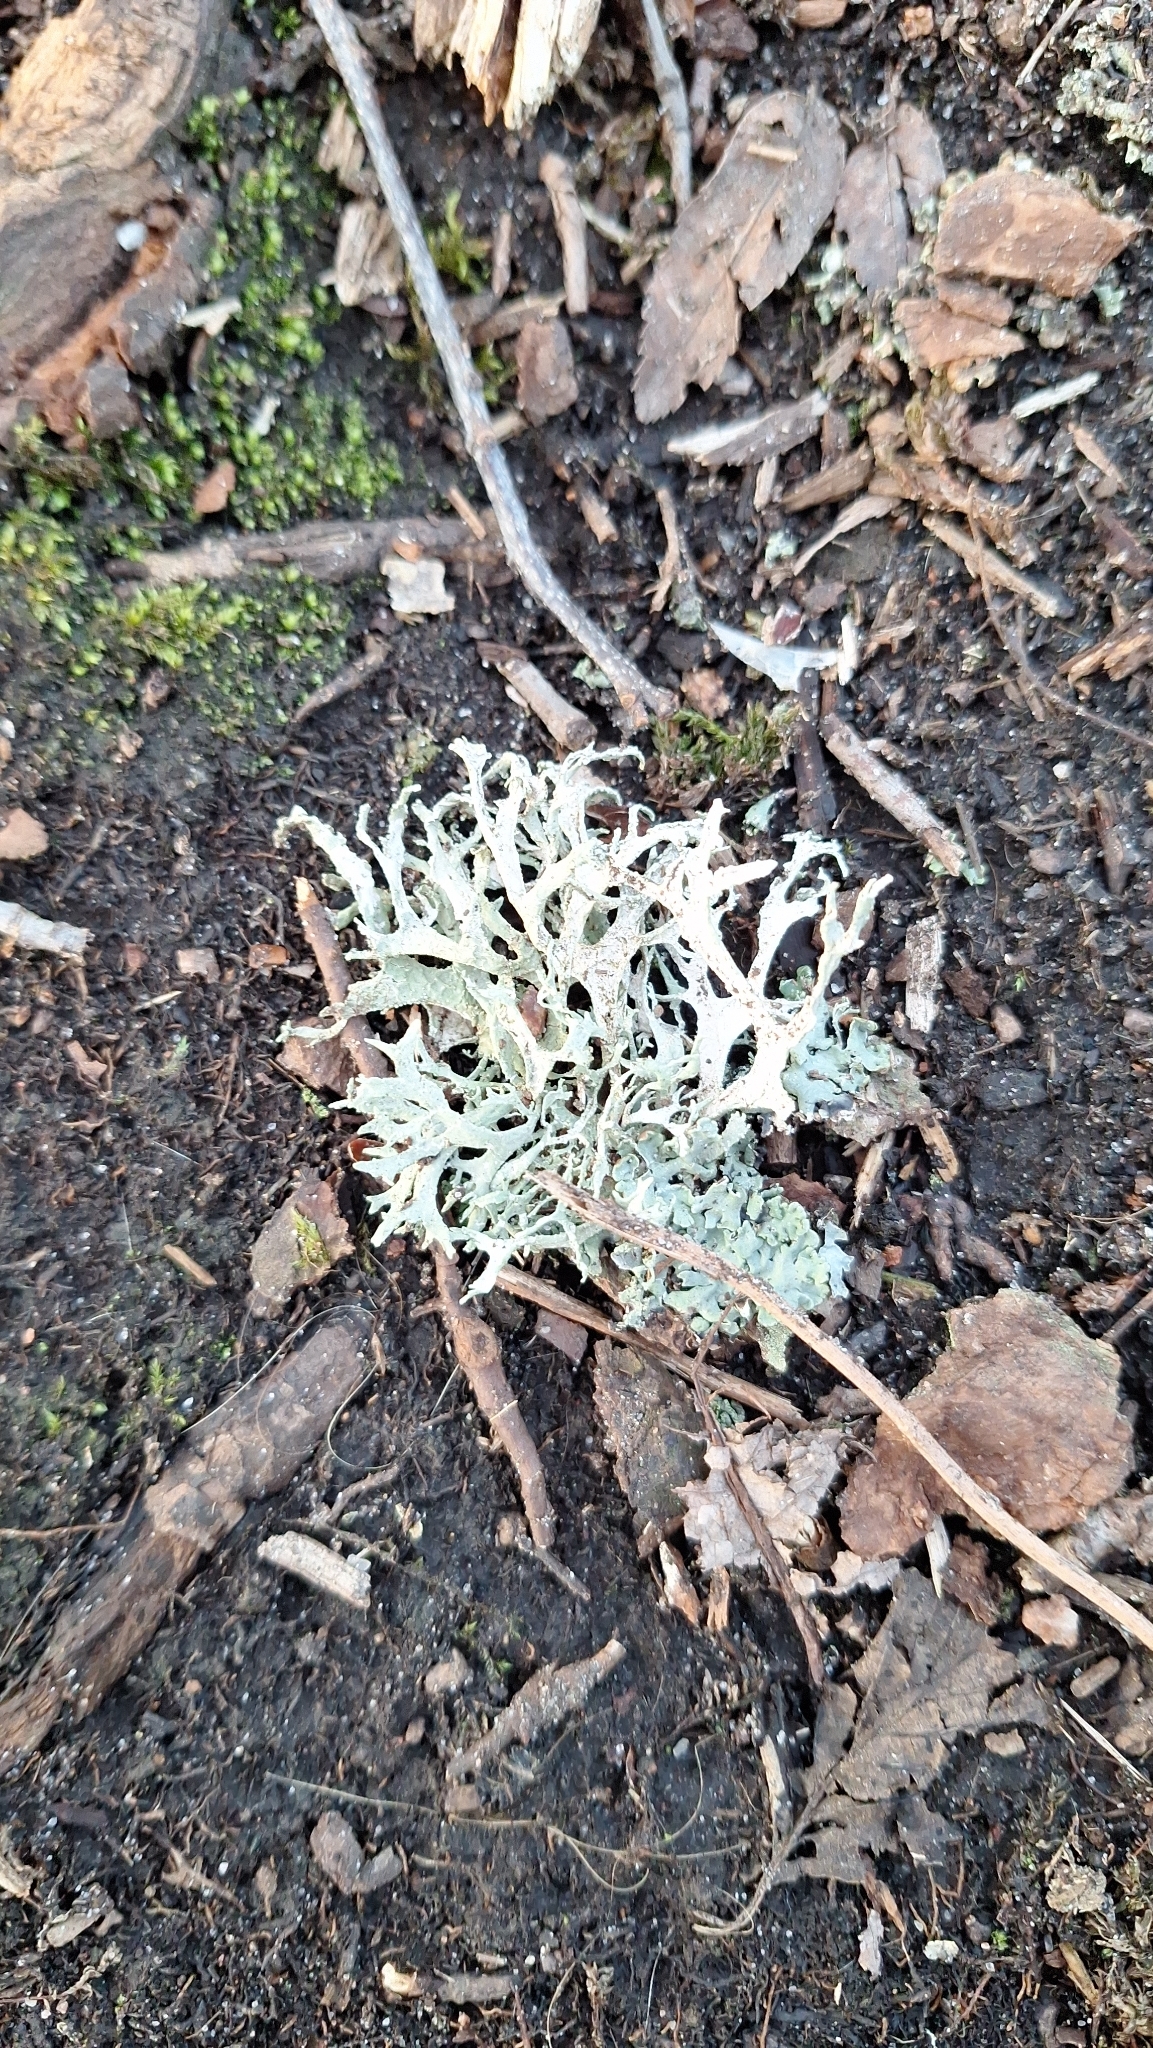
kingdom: Fungi
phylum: Ascomycota
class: Lecanoromycetes
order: Lecanorales
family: Parmeliaceae
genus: Evernia
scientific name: Evernia prunastri
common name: Oak moss
